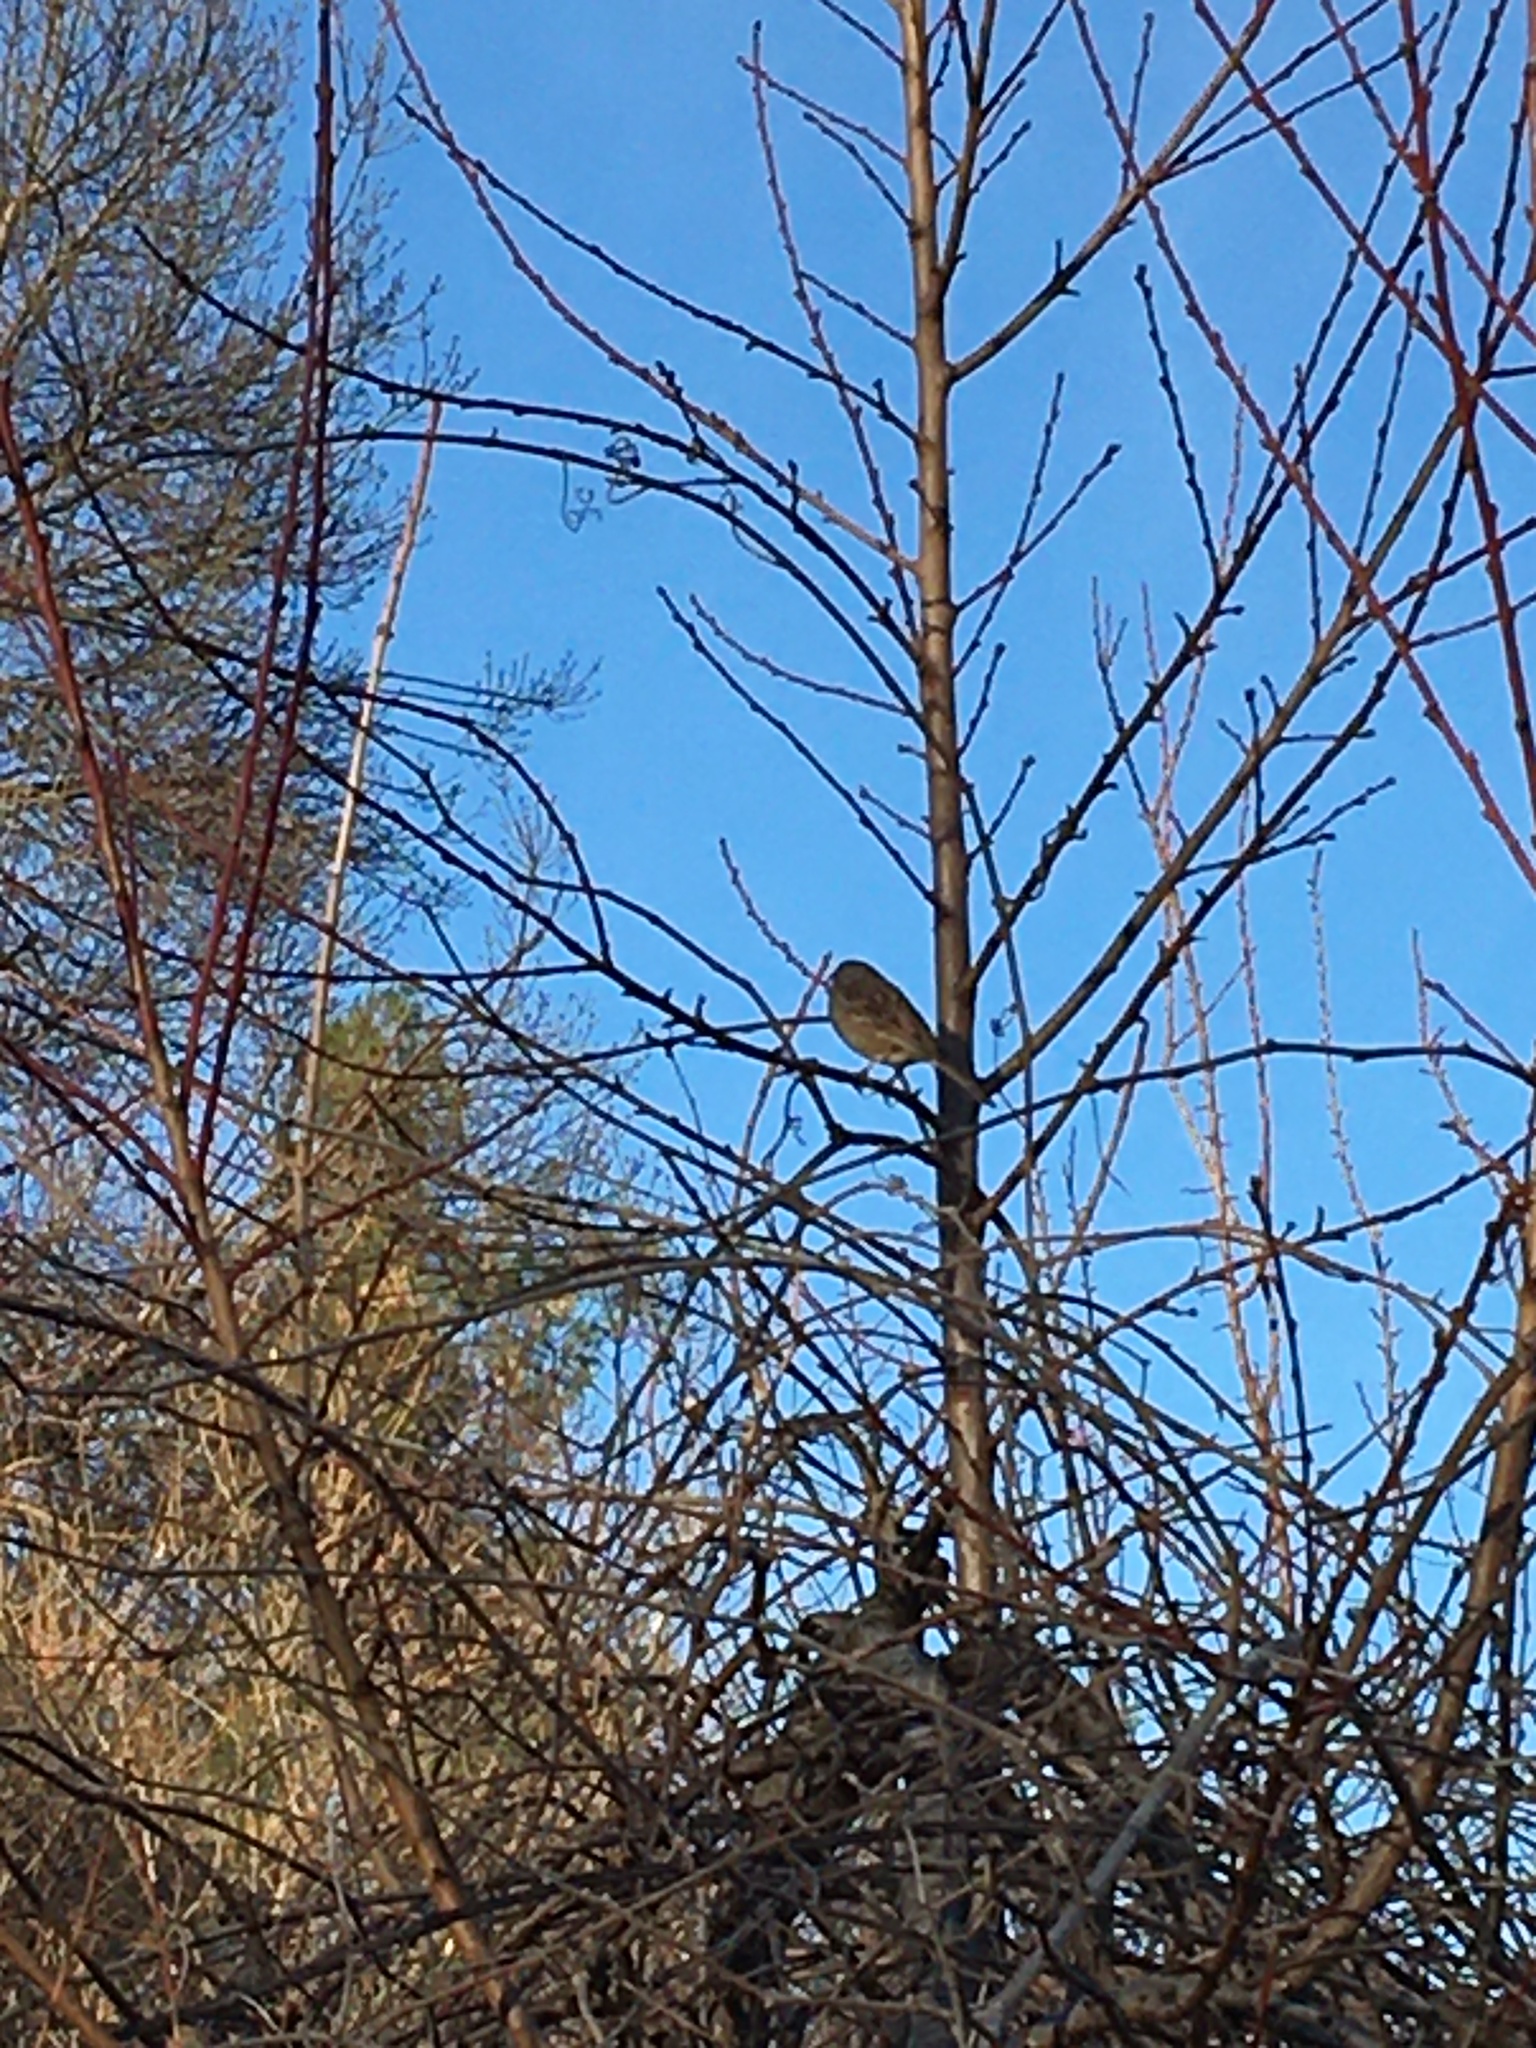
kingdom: Animalia
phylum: Chordata
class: Aves
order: Passeriformes
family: Passerellidae
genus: Zonotrichia
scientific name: Zonotrichia
